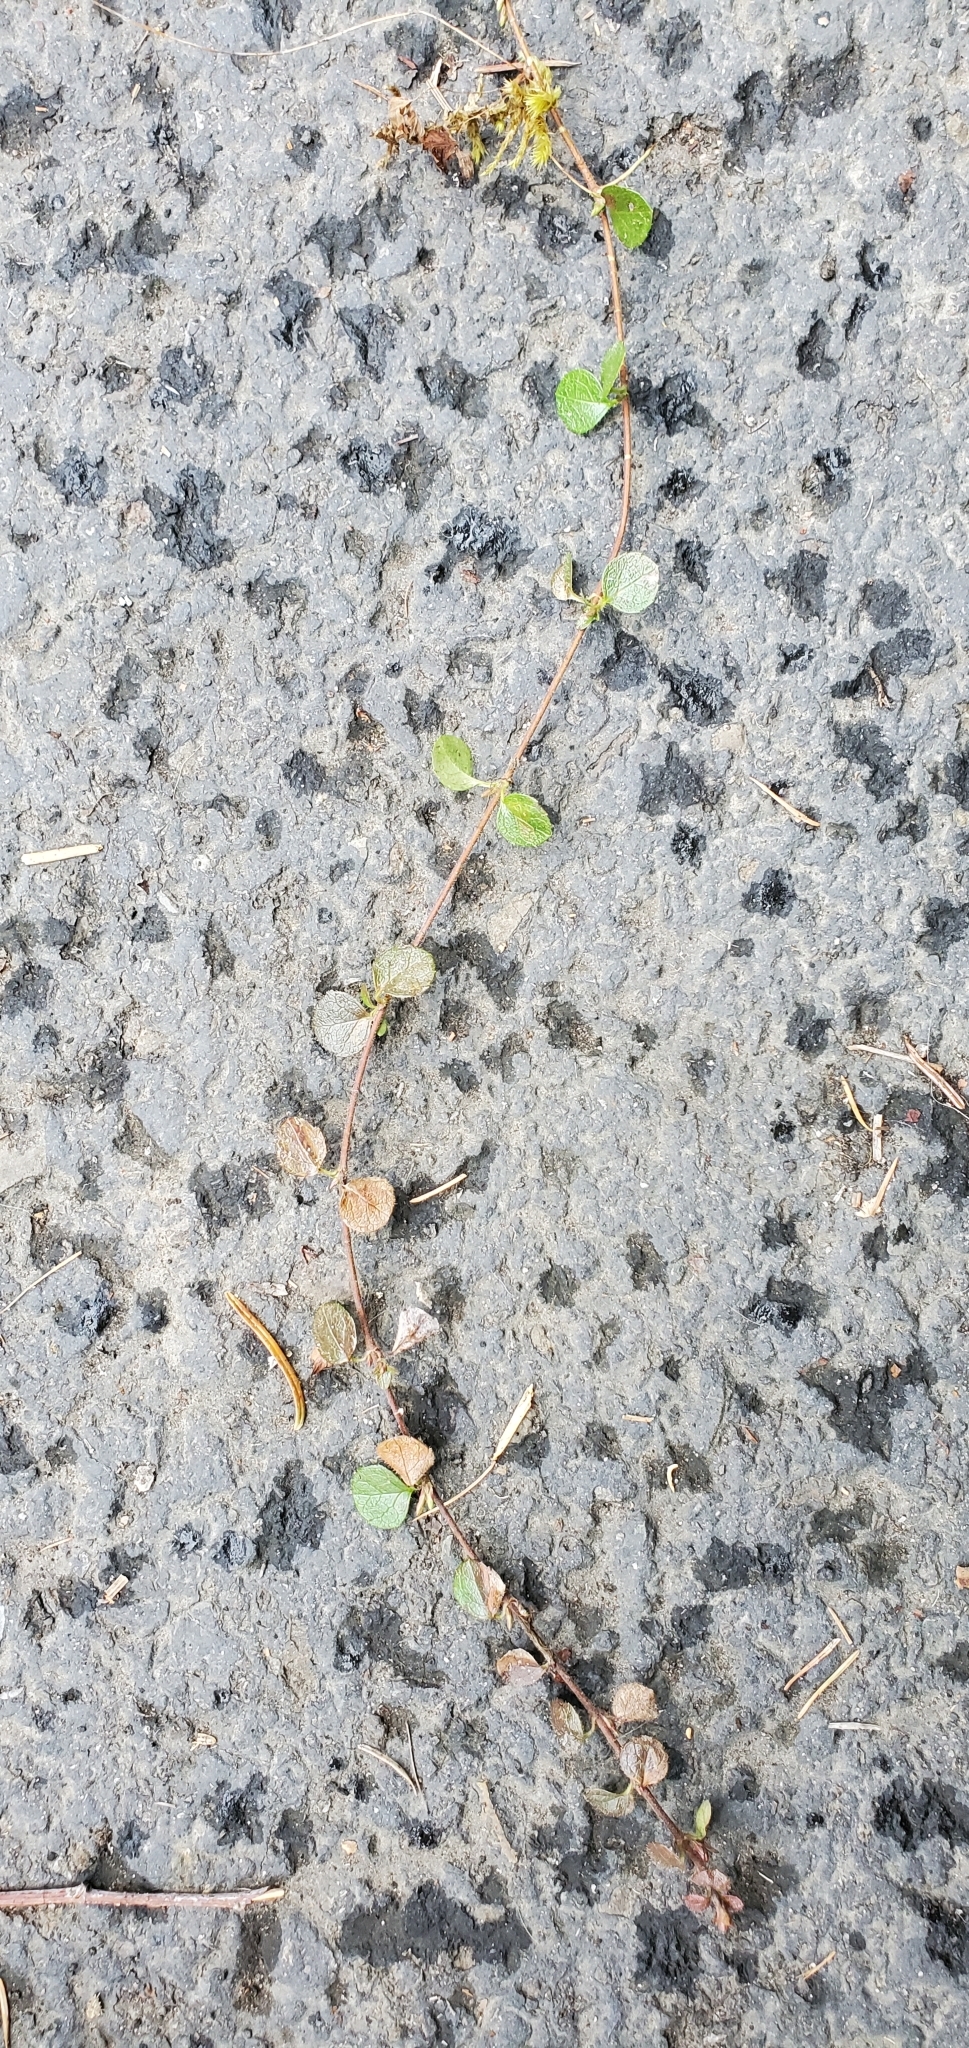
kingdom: Plantae
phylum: Tracheophyta
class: Magnoliopsida
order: Dipsacales
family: Caprifoliaceae
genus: Linnaea
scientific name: Linnaea borealis
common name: Twinflower
